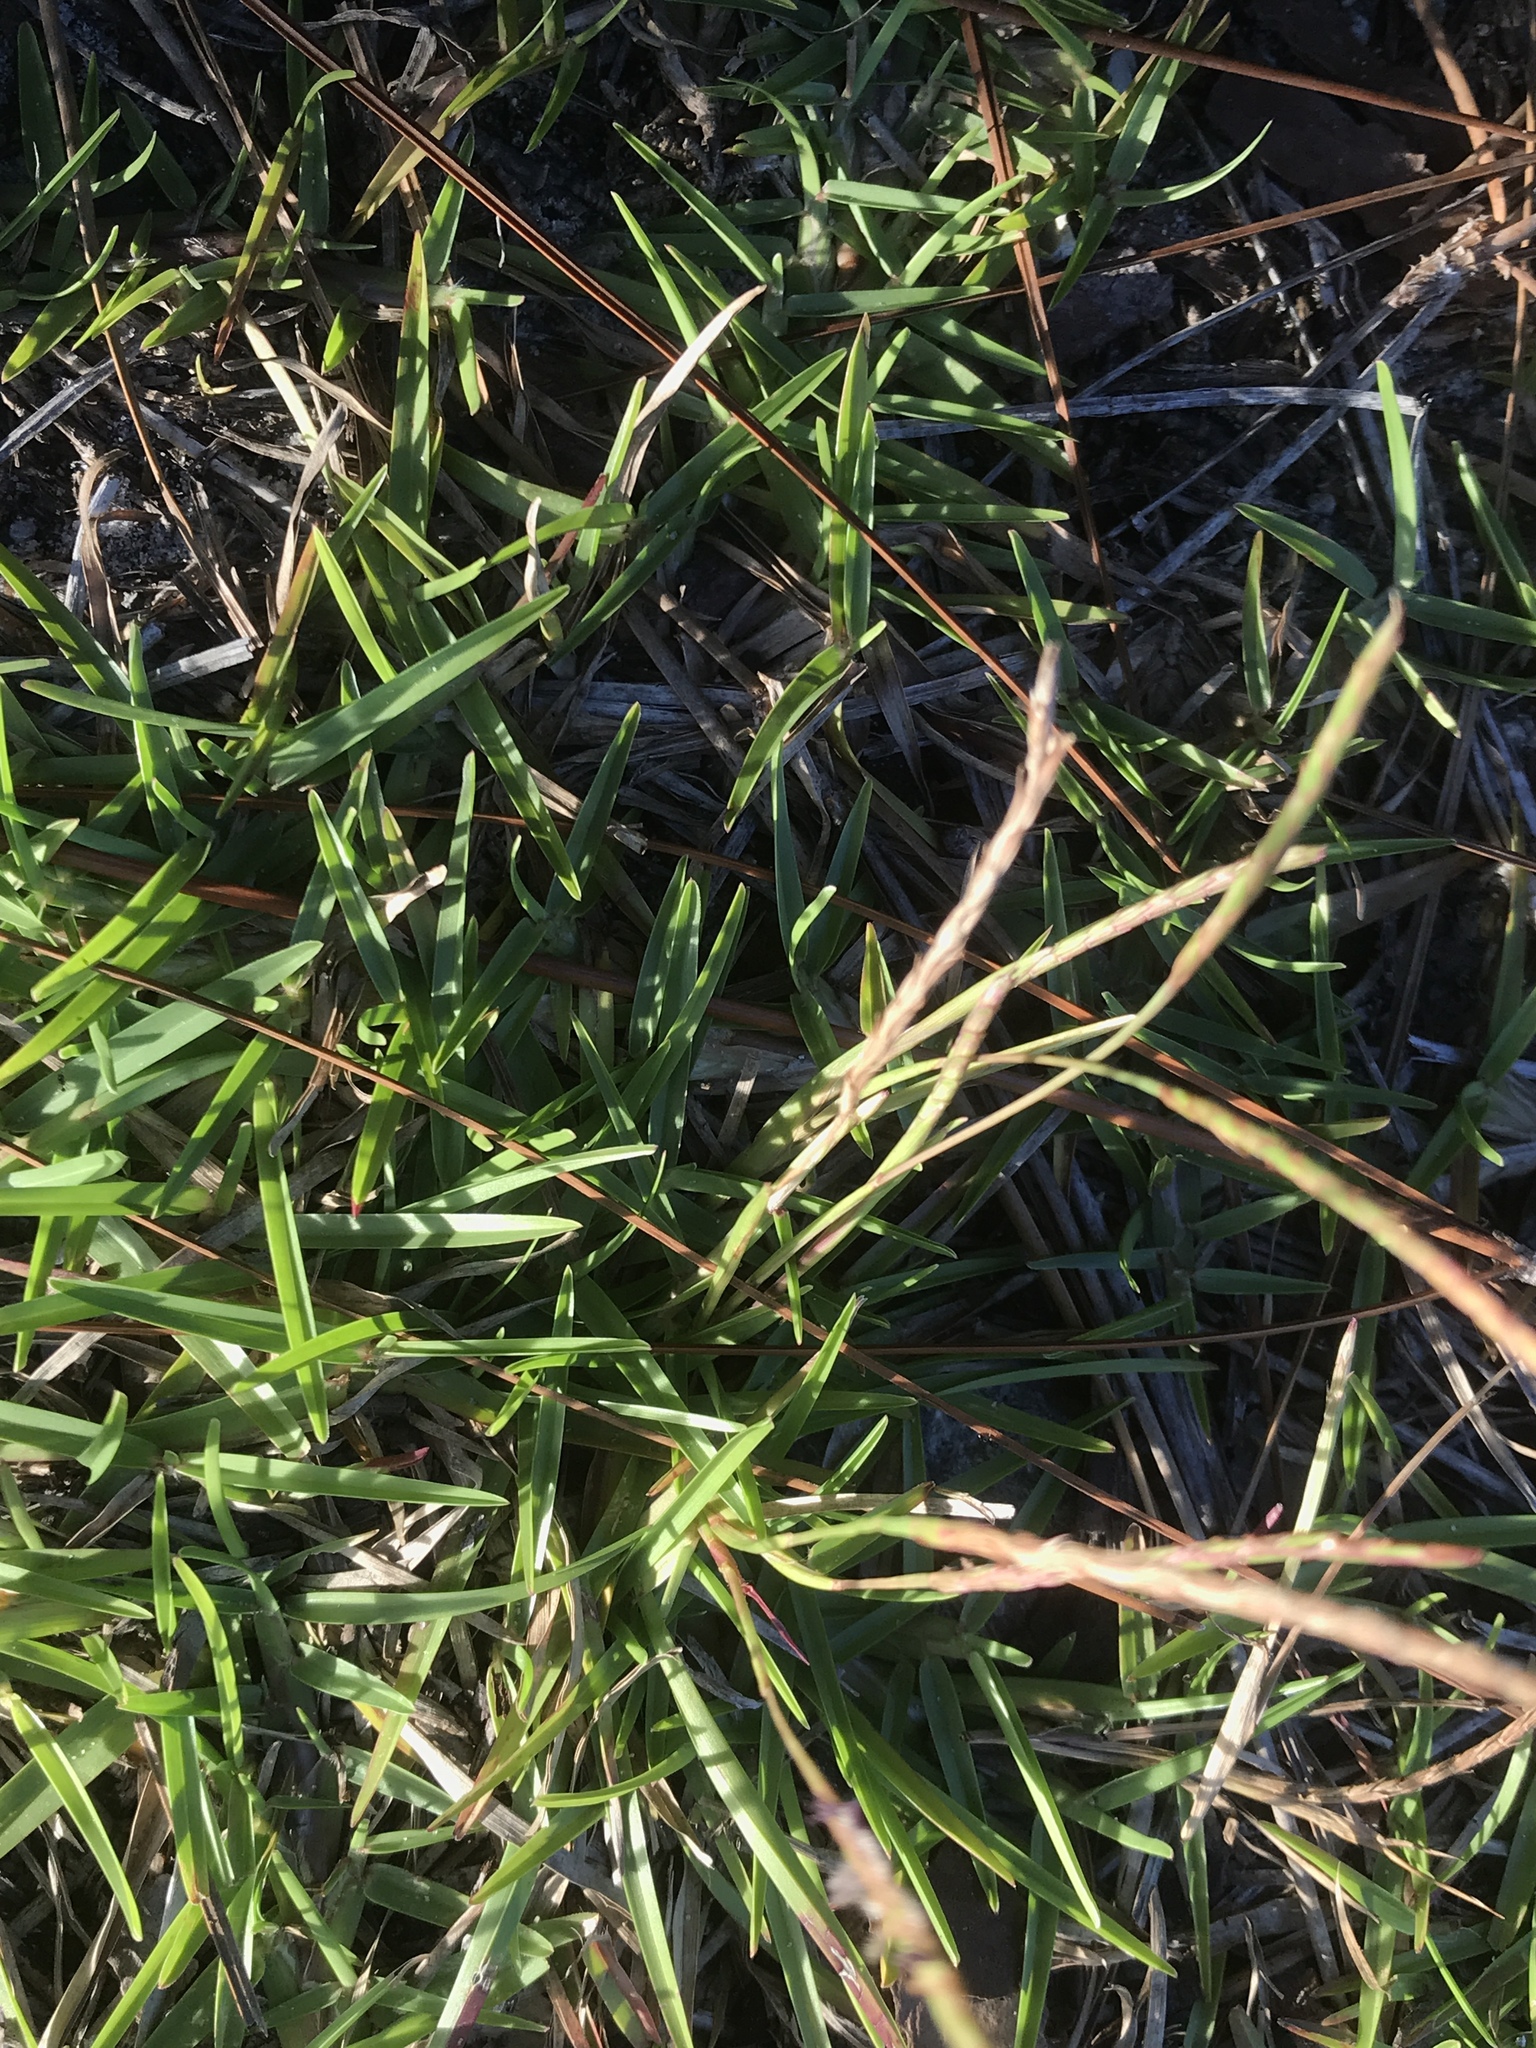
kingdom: Plantae
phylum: Tracheophyta
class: Liliopsida
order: Poales
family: Poaceae
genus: Eremochloa
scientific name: Eremochloa ophiuroides
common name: Centipede grass
